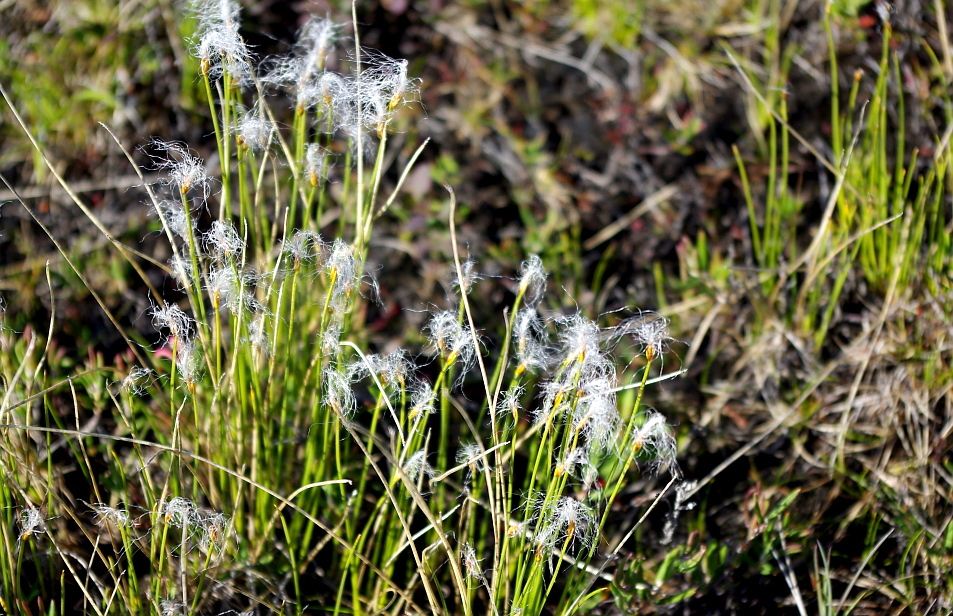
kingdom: Plantae
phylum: Tracheophyta
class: Liliopsida
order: Poales
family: Cyperaceae
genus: Trichophorum
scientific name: Trichophorum alpinum
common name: Alpine bulrush
